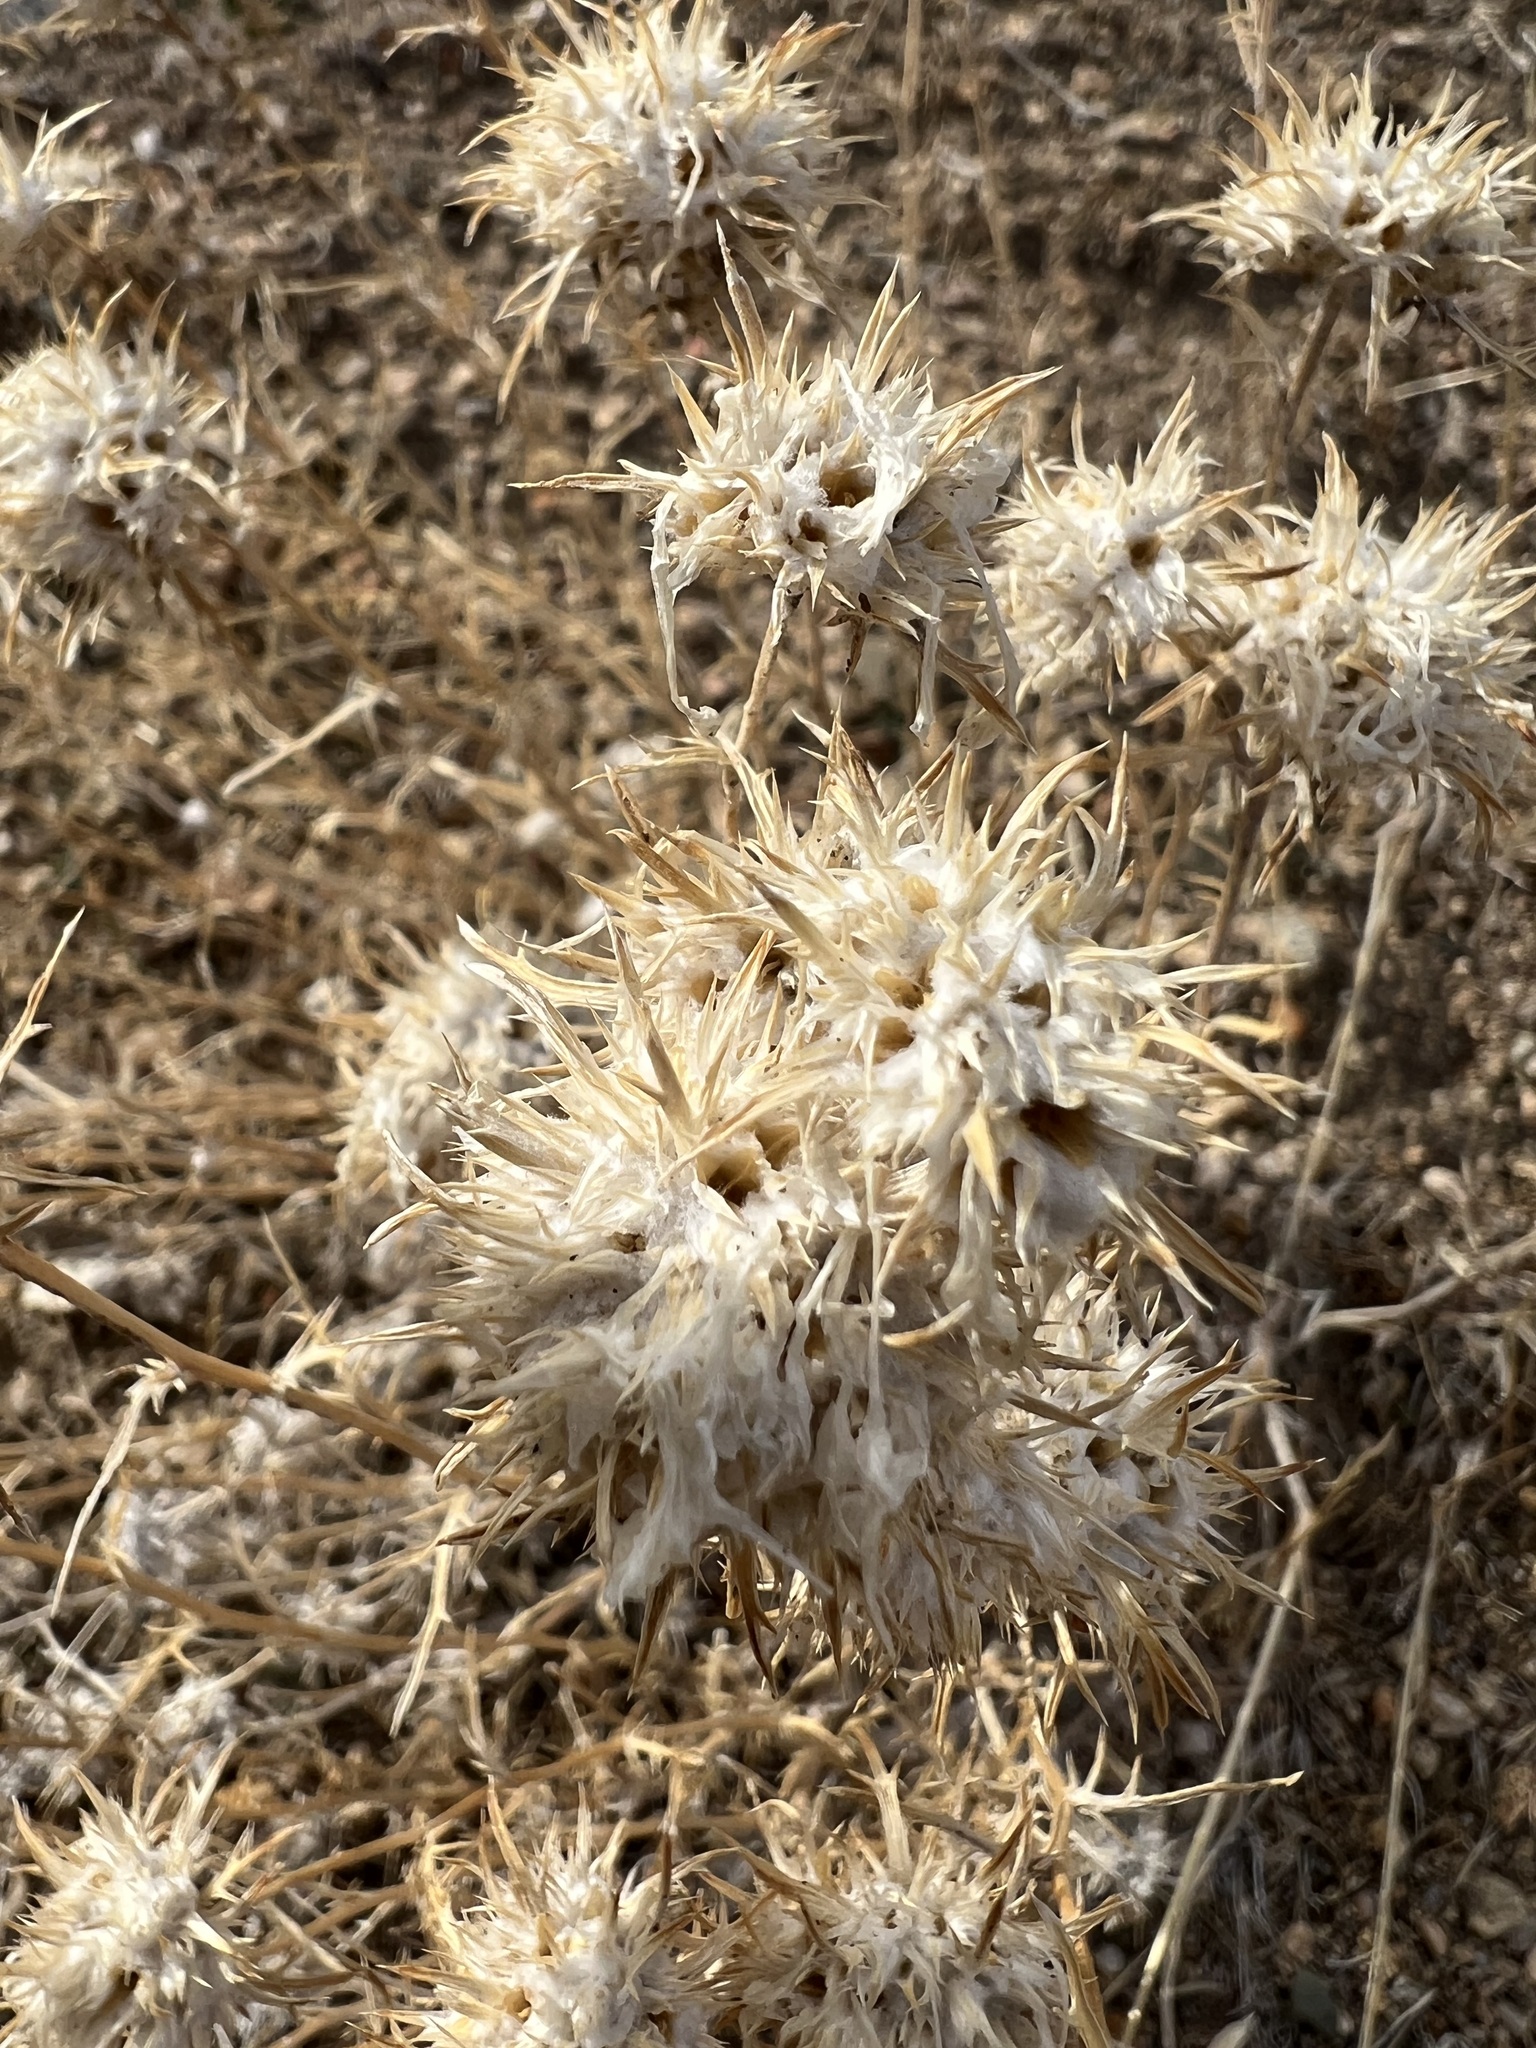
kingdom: Plantae
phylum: Tracheophyta
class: Magnoliopsida
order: Ericales
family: Polemoniaceae
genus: Eriastrum
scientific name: Eriastrum densifolium
